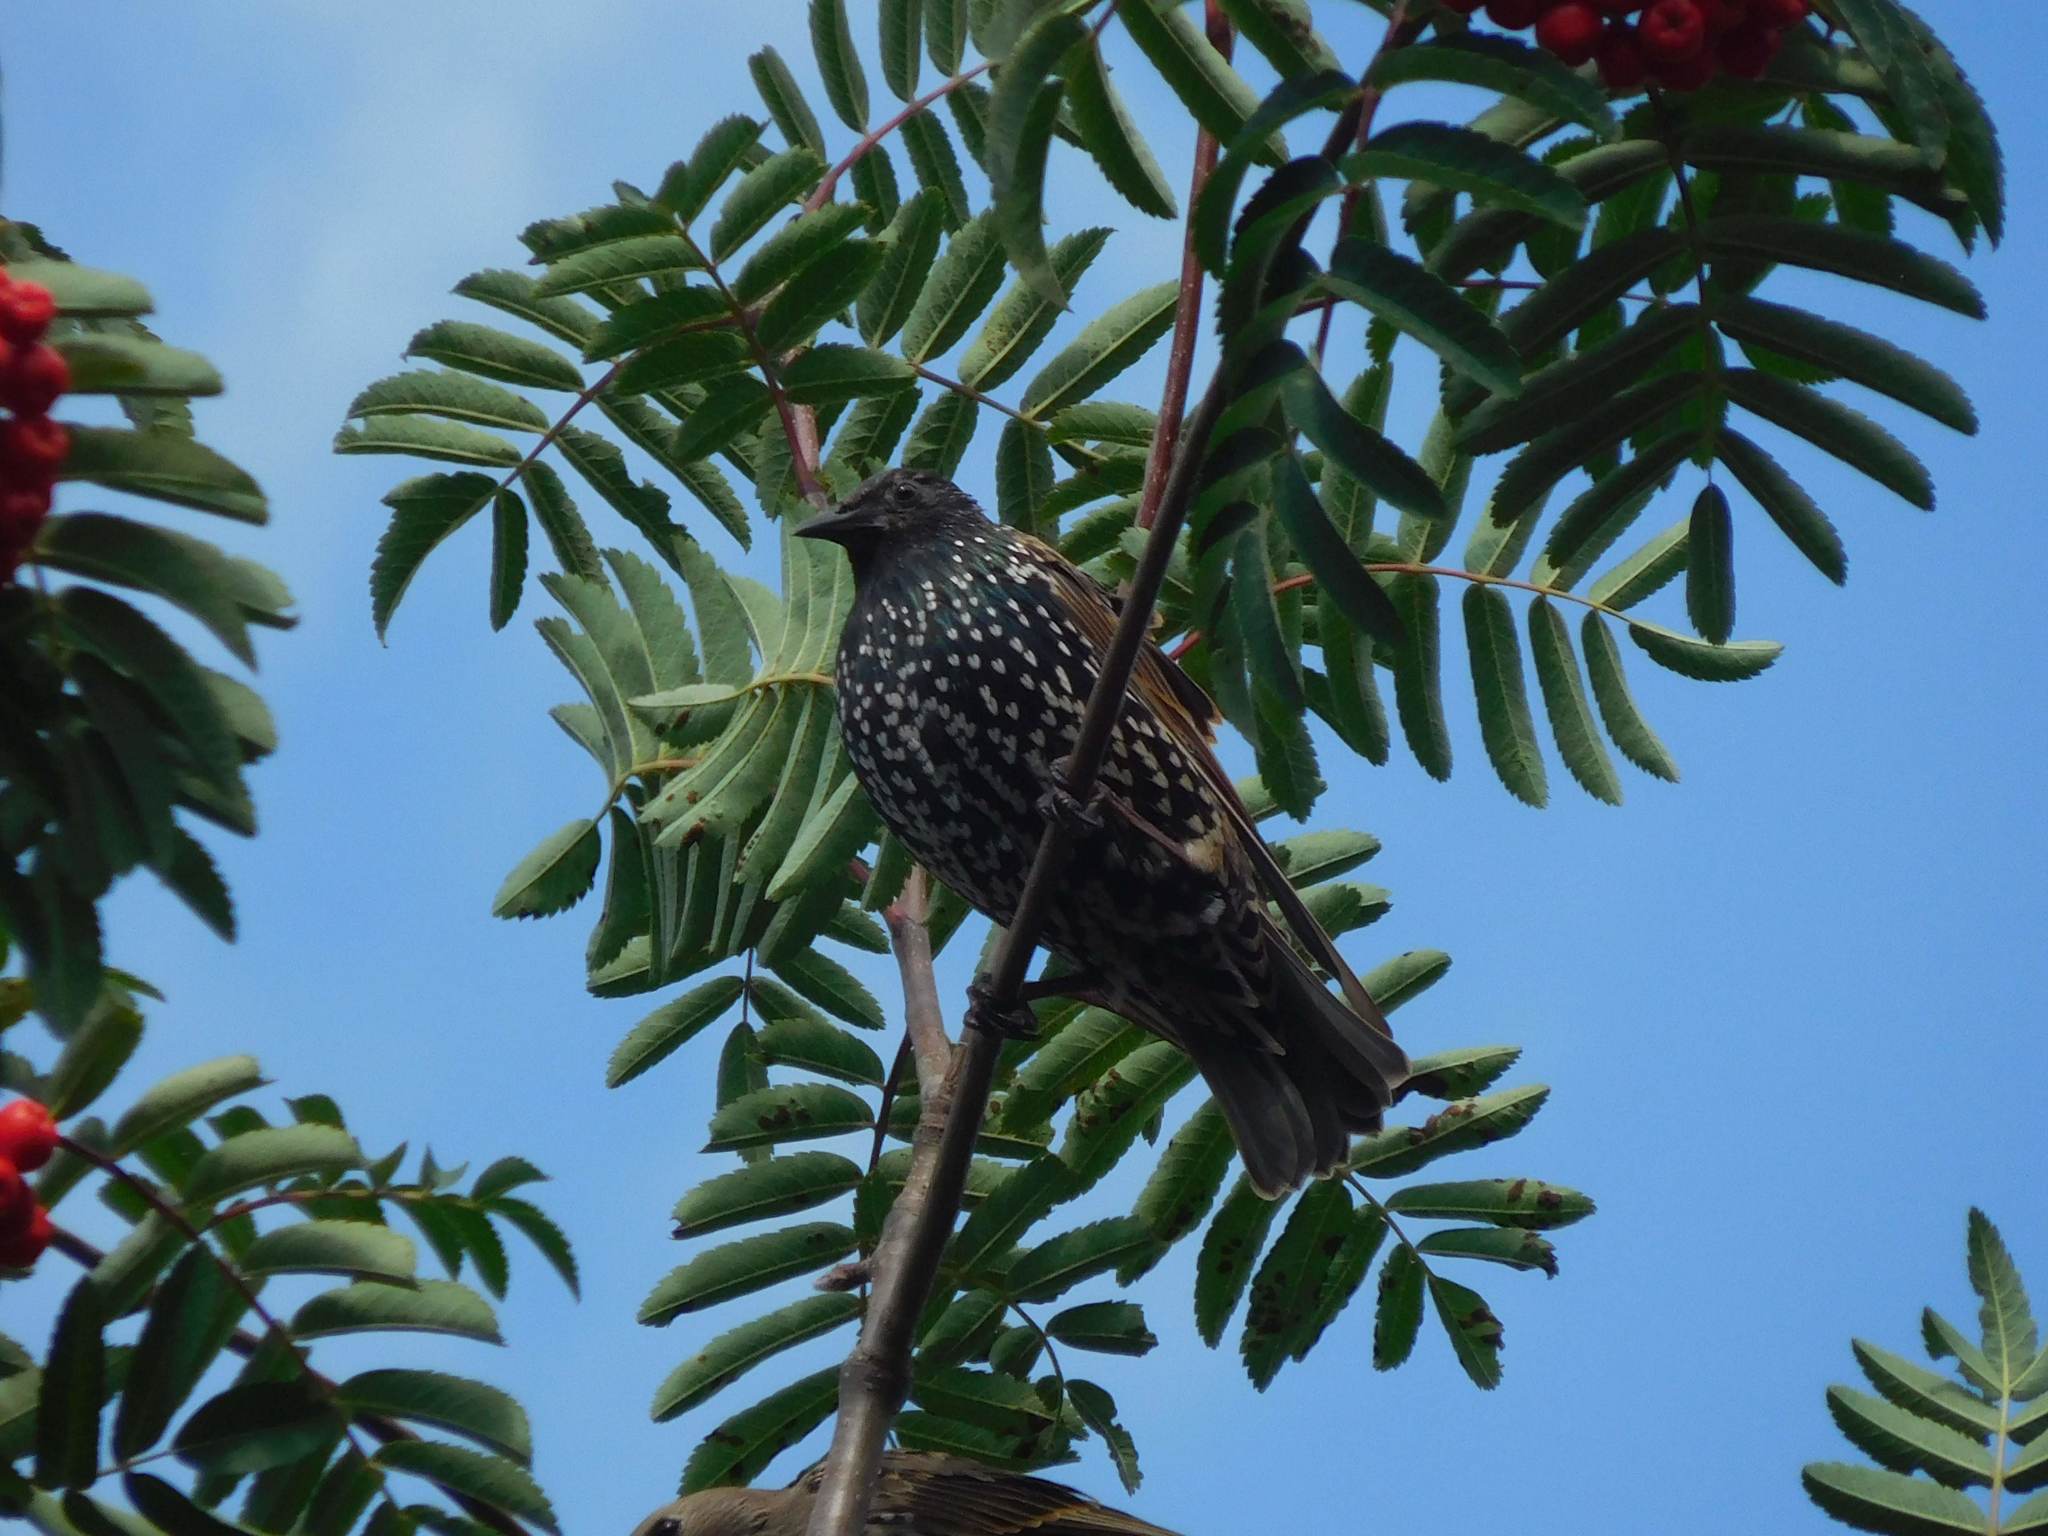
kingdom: Animalia
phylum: Chordata
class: Aves
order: Passeriformes
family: Sturnidae
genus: Sturnus
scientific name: Sturnus vulgaris
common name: Common starling
